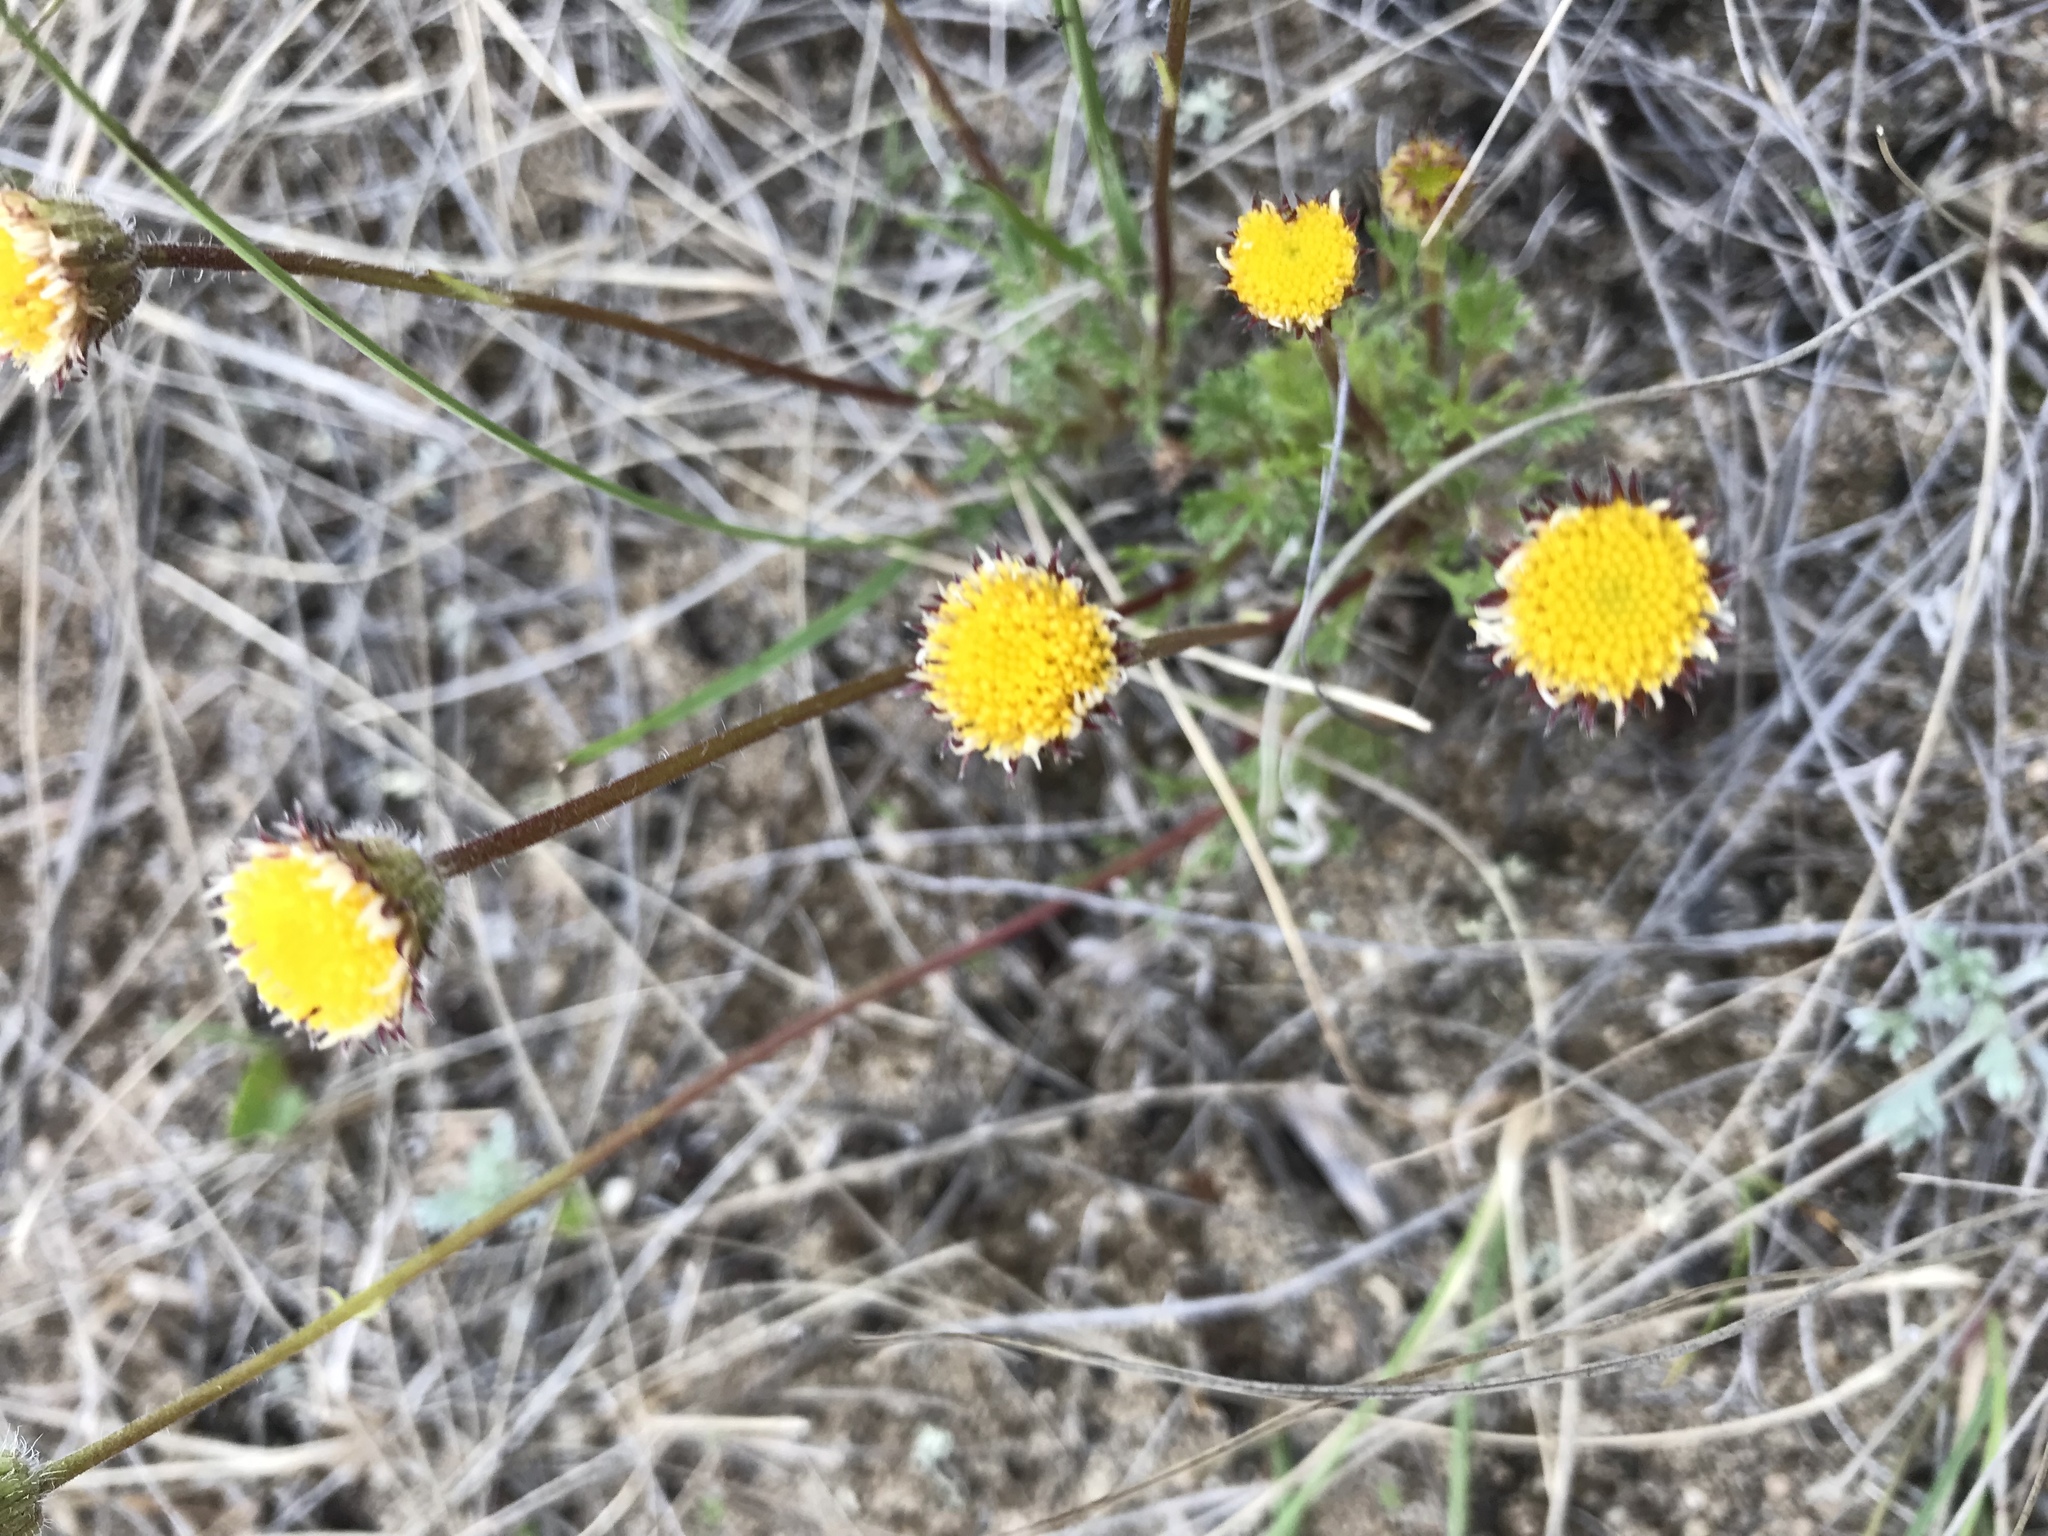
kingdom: Plantae
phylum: Tracheophyta
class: Magnoliopsida
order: Asterales
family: Asteraceae
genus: Erigeron
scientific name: Erigeron compositus
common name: Dwarf mountain fleabane
